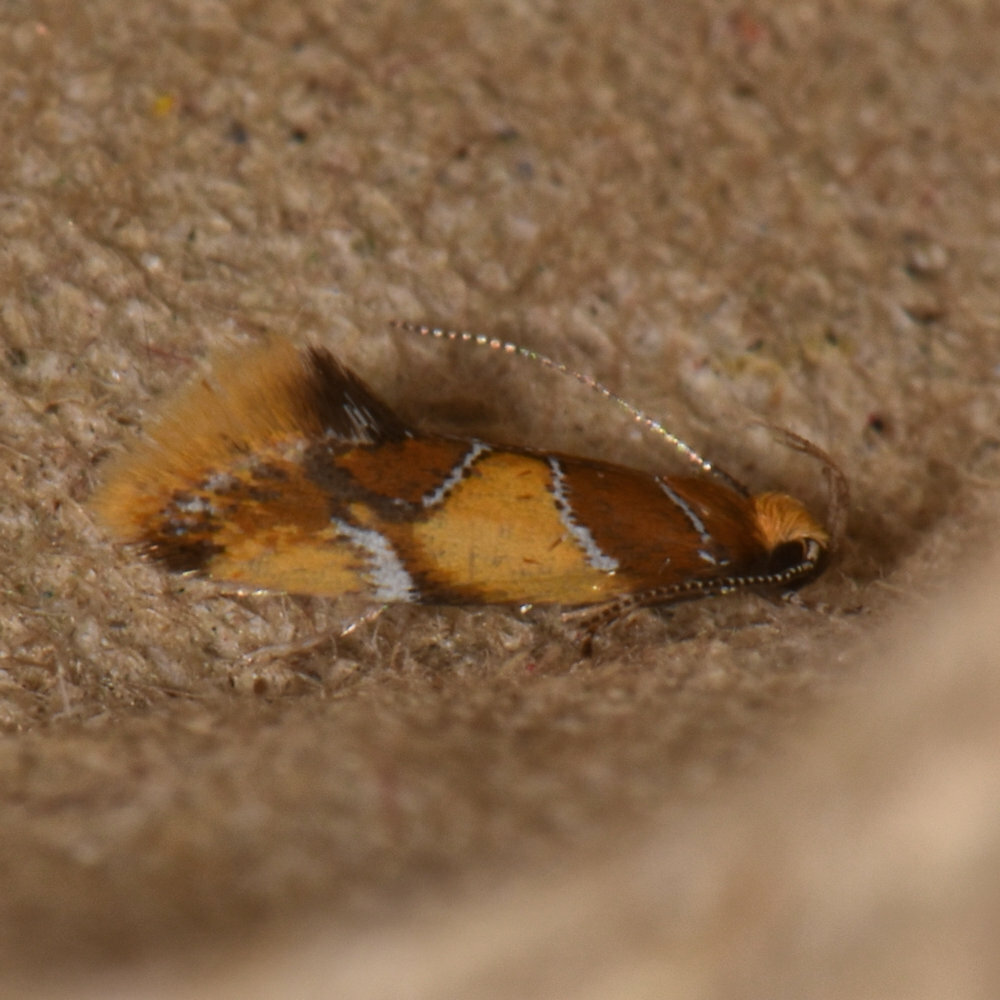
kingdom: Animalia
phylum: Arthropoda
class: Insecta
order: Lepidoptera
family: Oecophoridae
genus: Callima
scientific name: Callima argenticinctella
